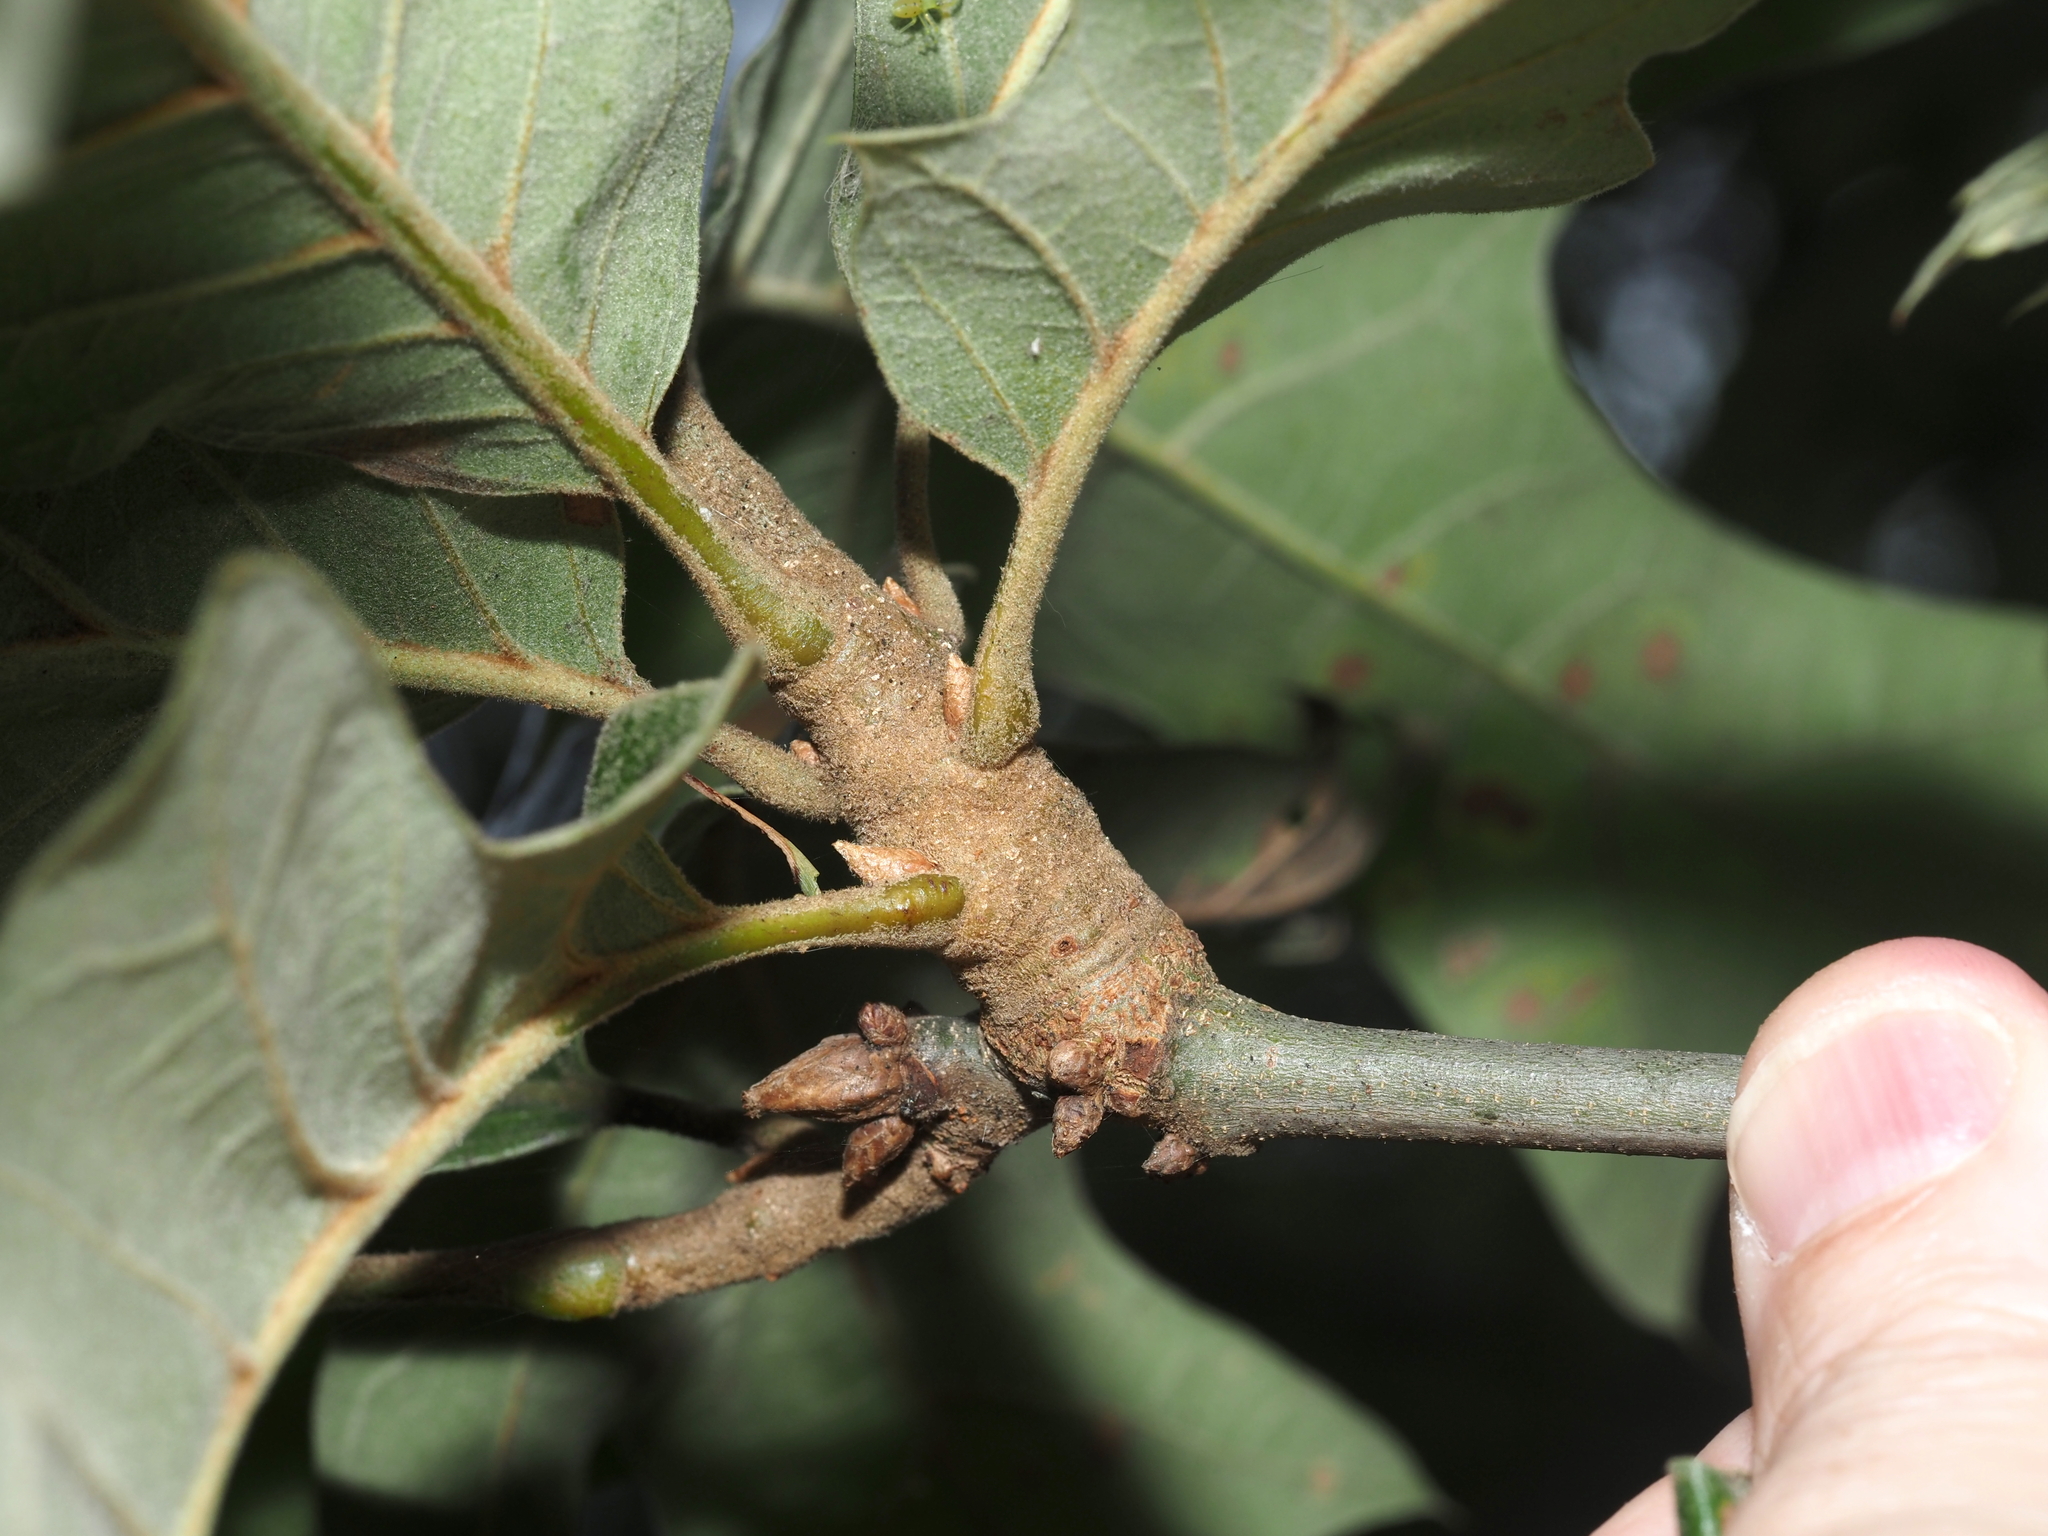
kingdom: Animalia
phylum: Arthropoda
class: Insecta
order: Hymenoptera
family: Cynipidae
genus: Callirhytis
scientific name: Callirhytis
